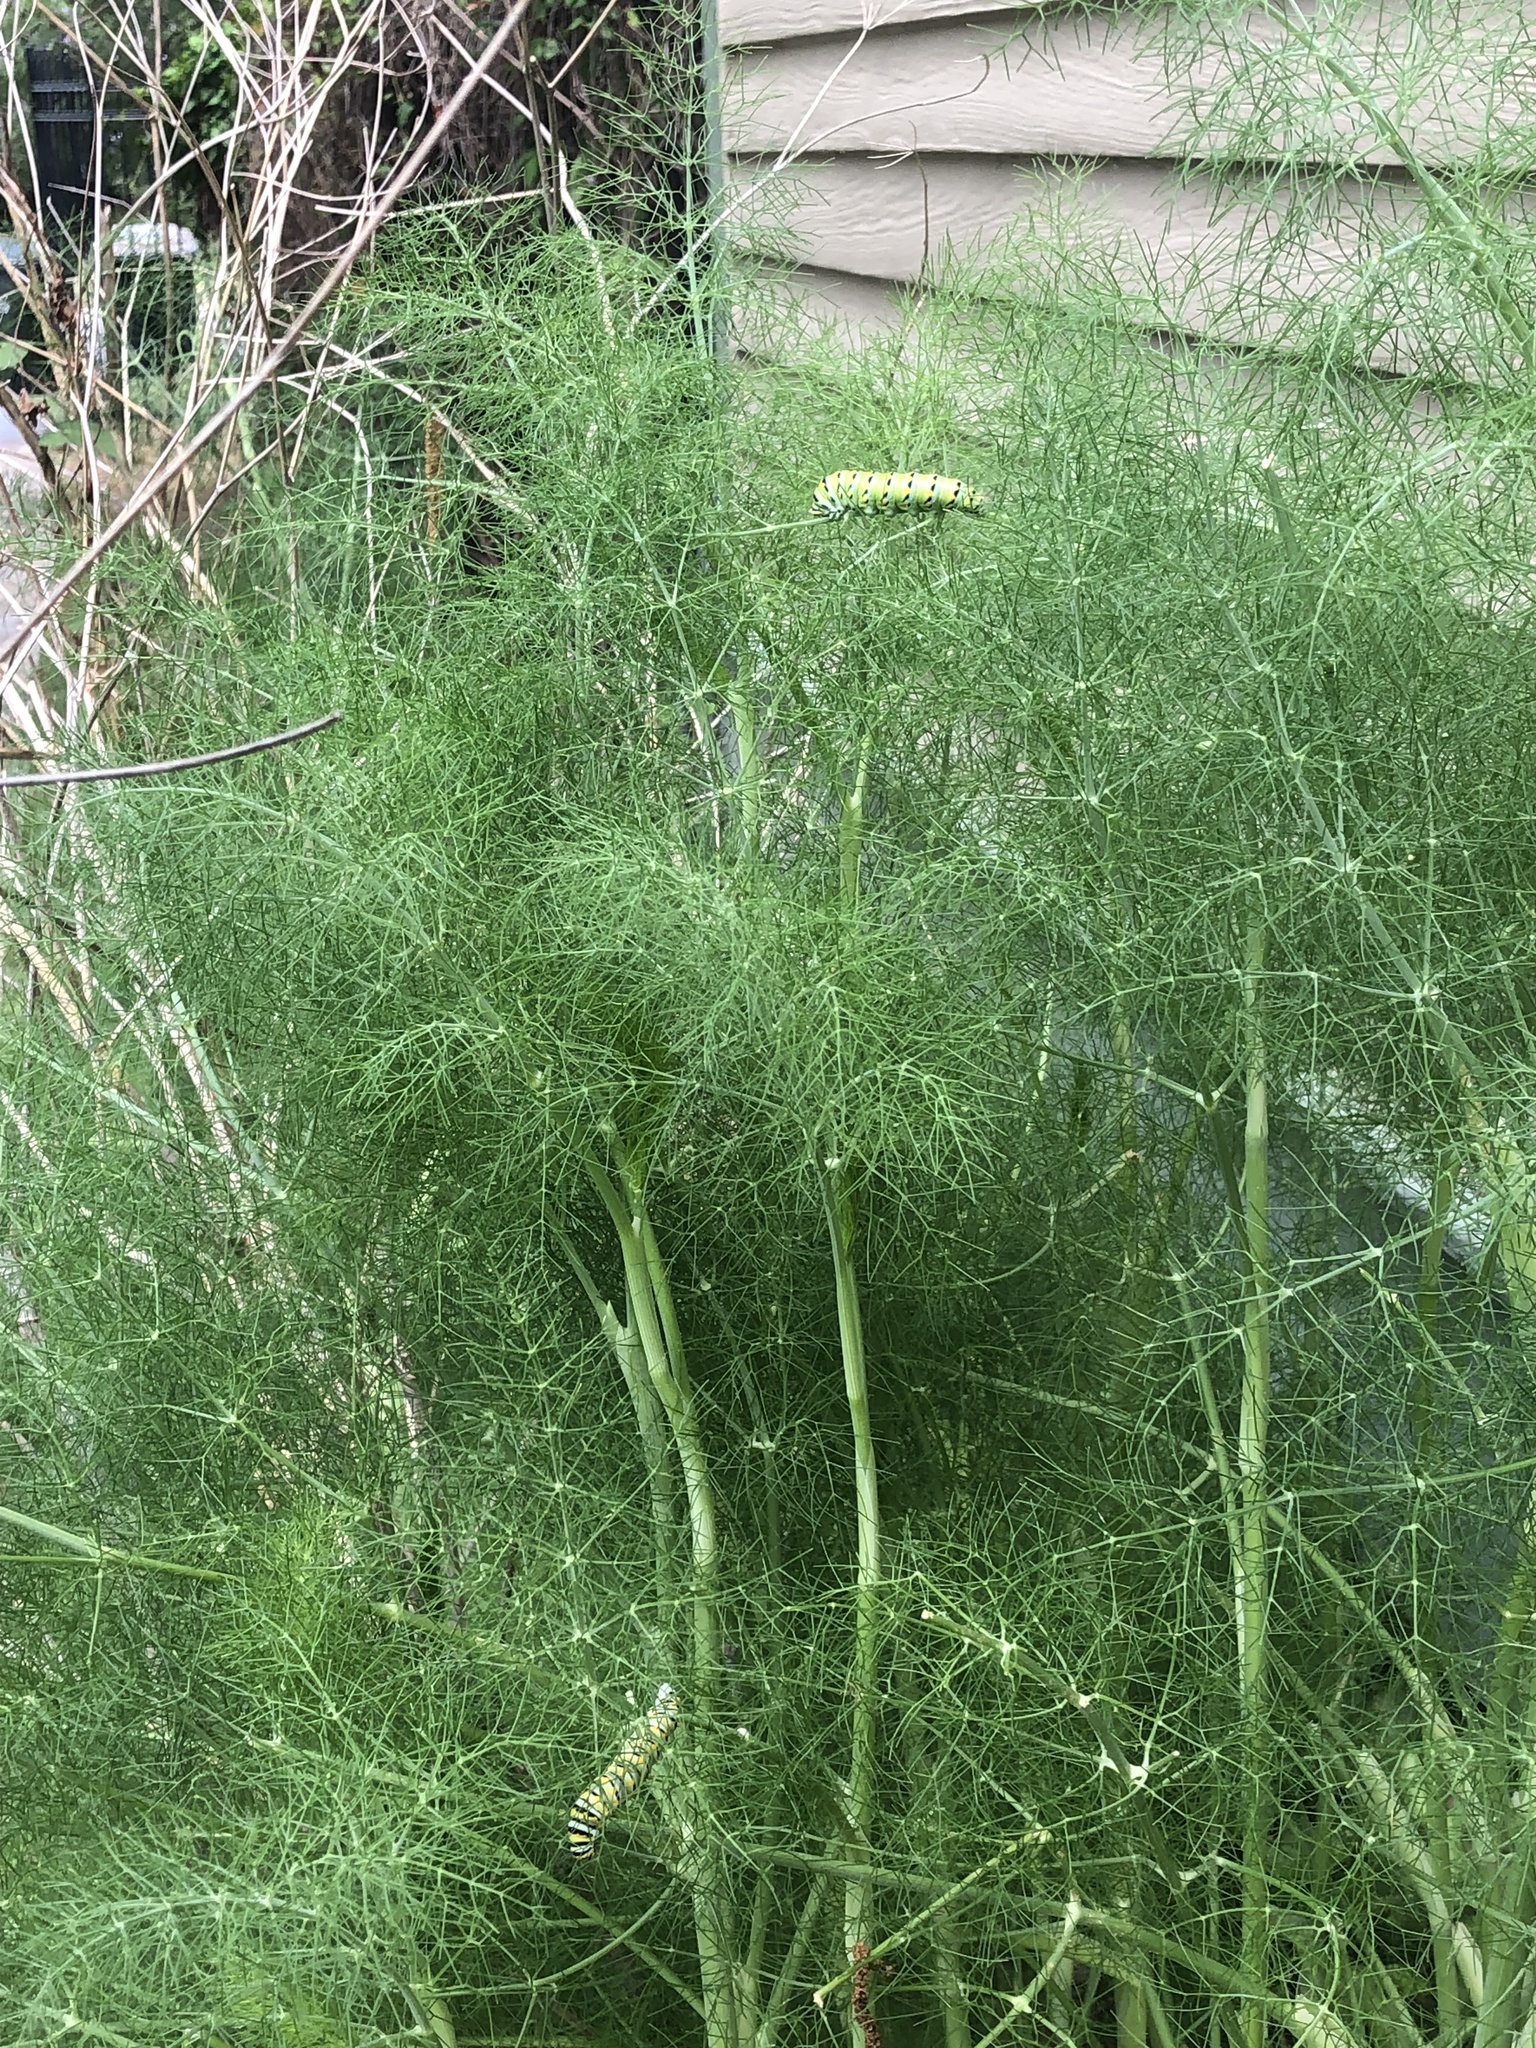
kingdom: Animalia
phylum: Arthropoda
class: Insecta
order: Lepidoptera
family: Papilionidae
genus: Papilio
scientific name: Papilio polyxenes
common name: Black swallowtail
